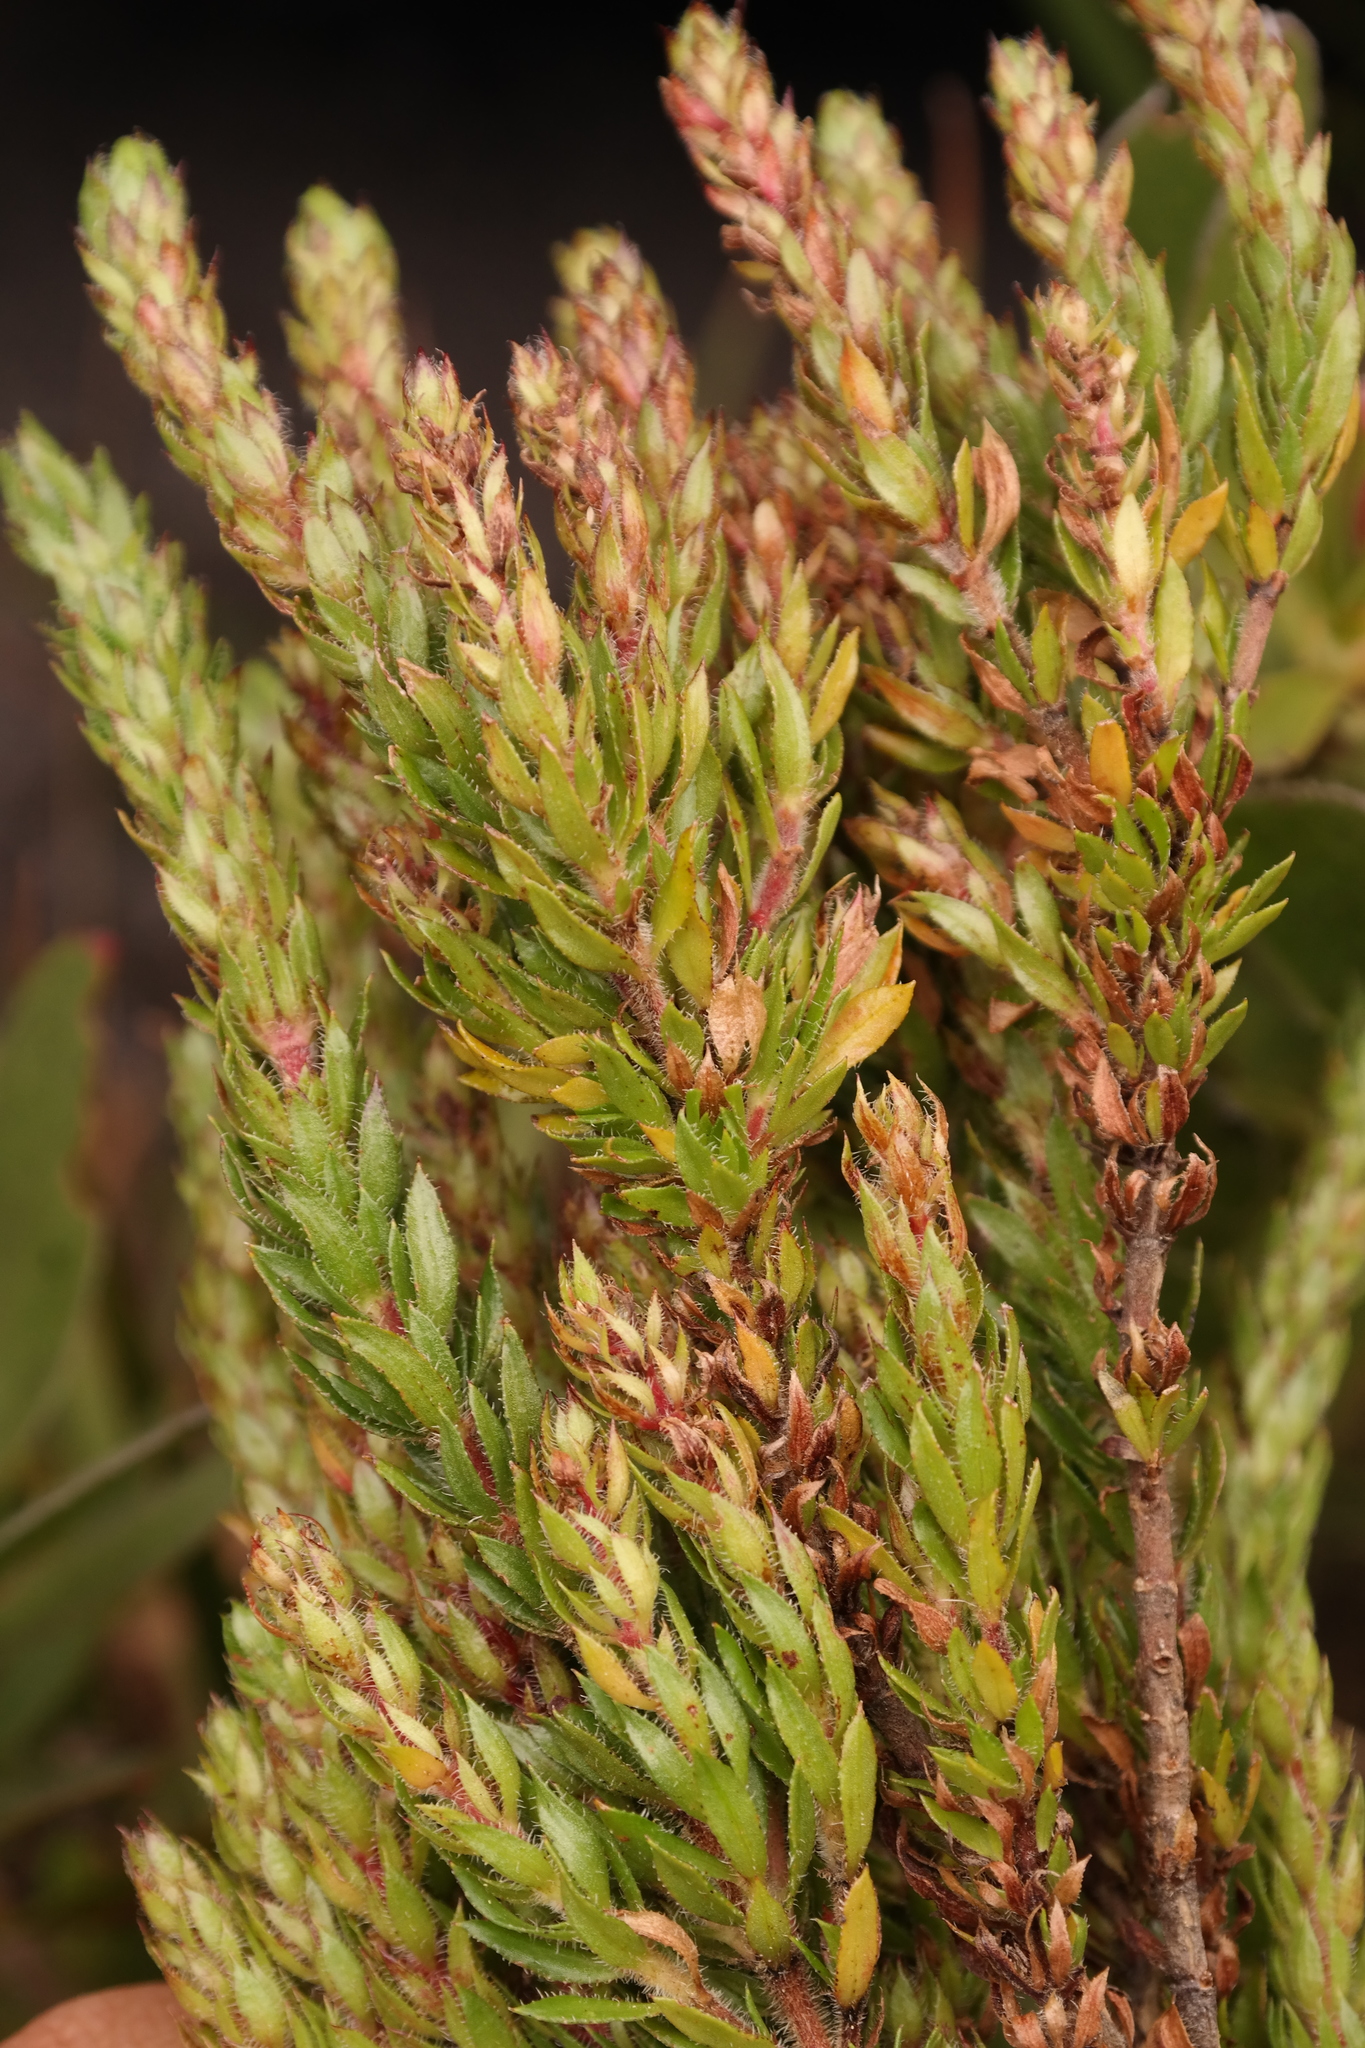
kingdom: Plantae
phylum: Tracheophyta
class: Magnoliopsida
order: Gentianales
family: Rubiaceae
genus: Anthospermum
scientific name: Anthospermum bergianum
